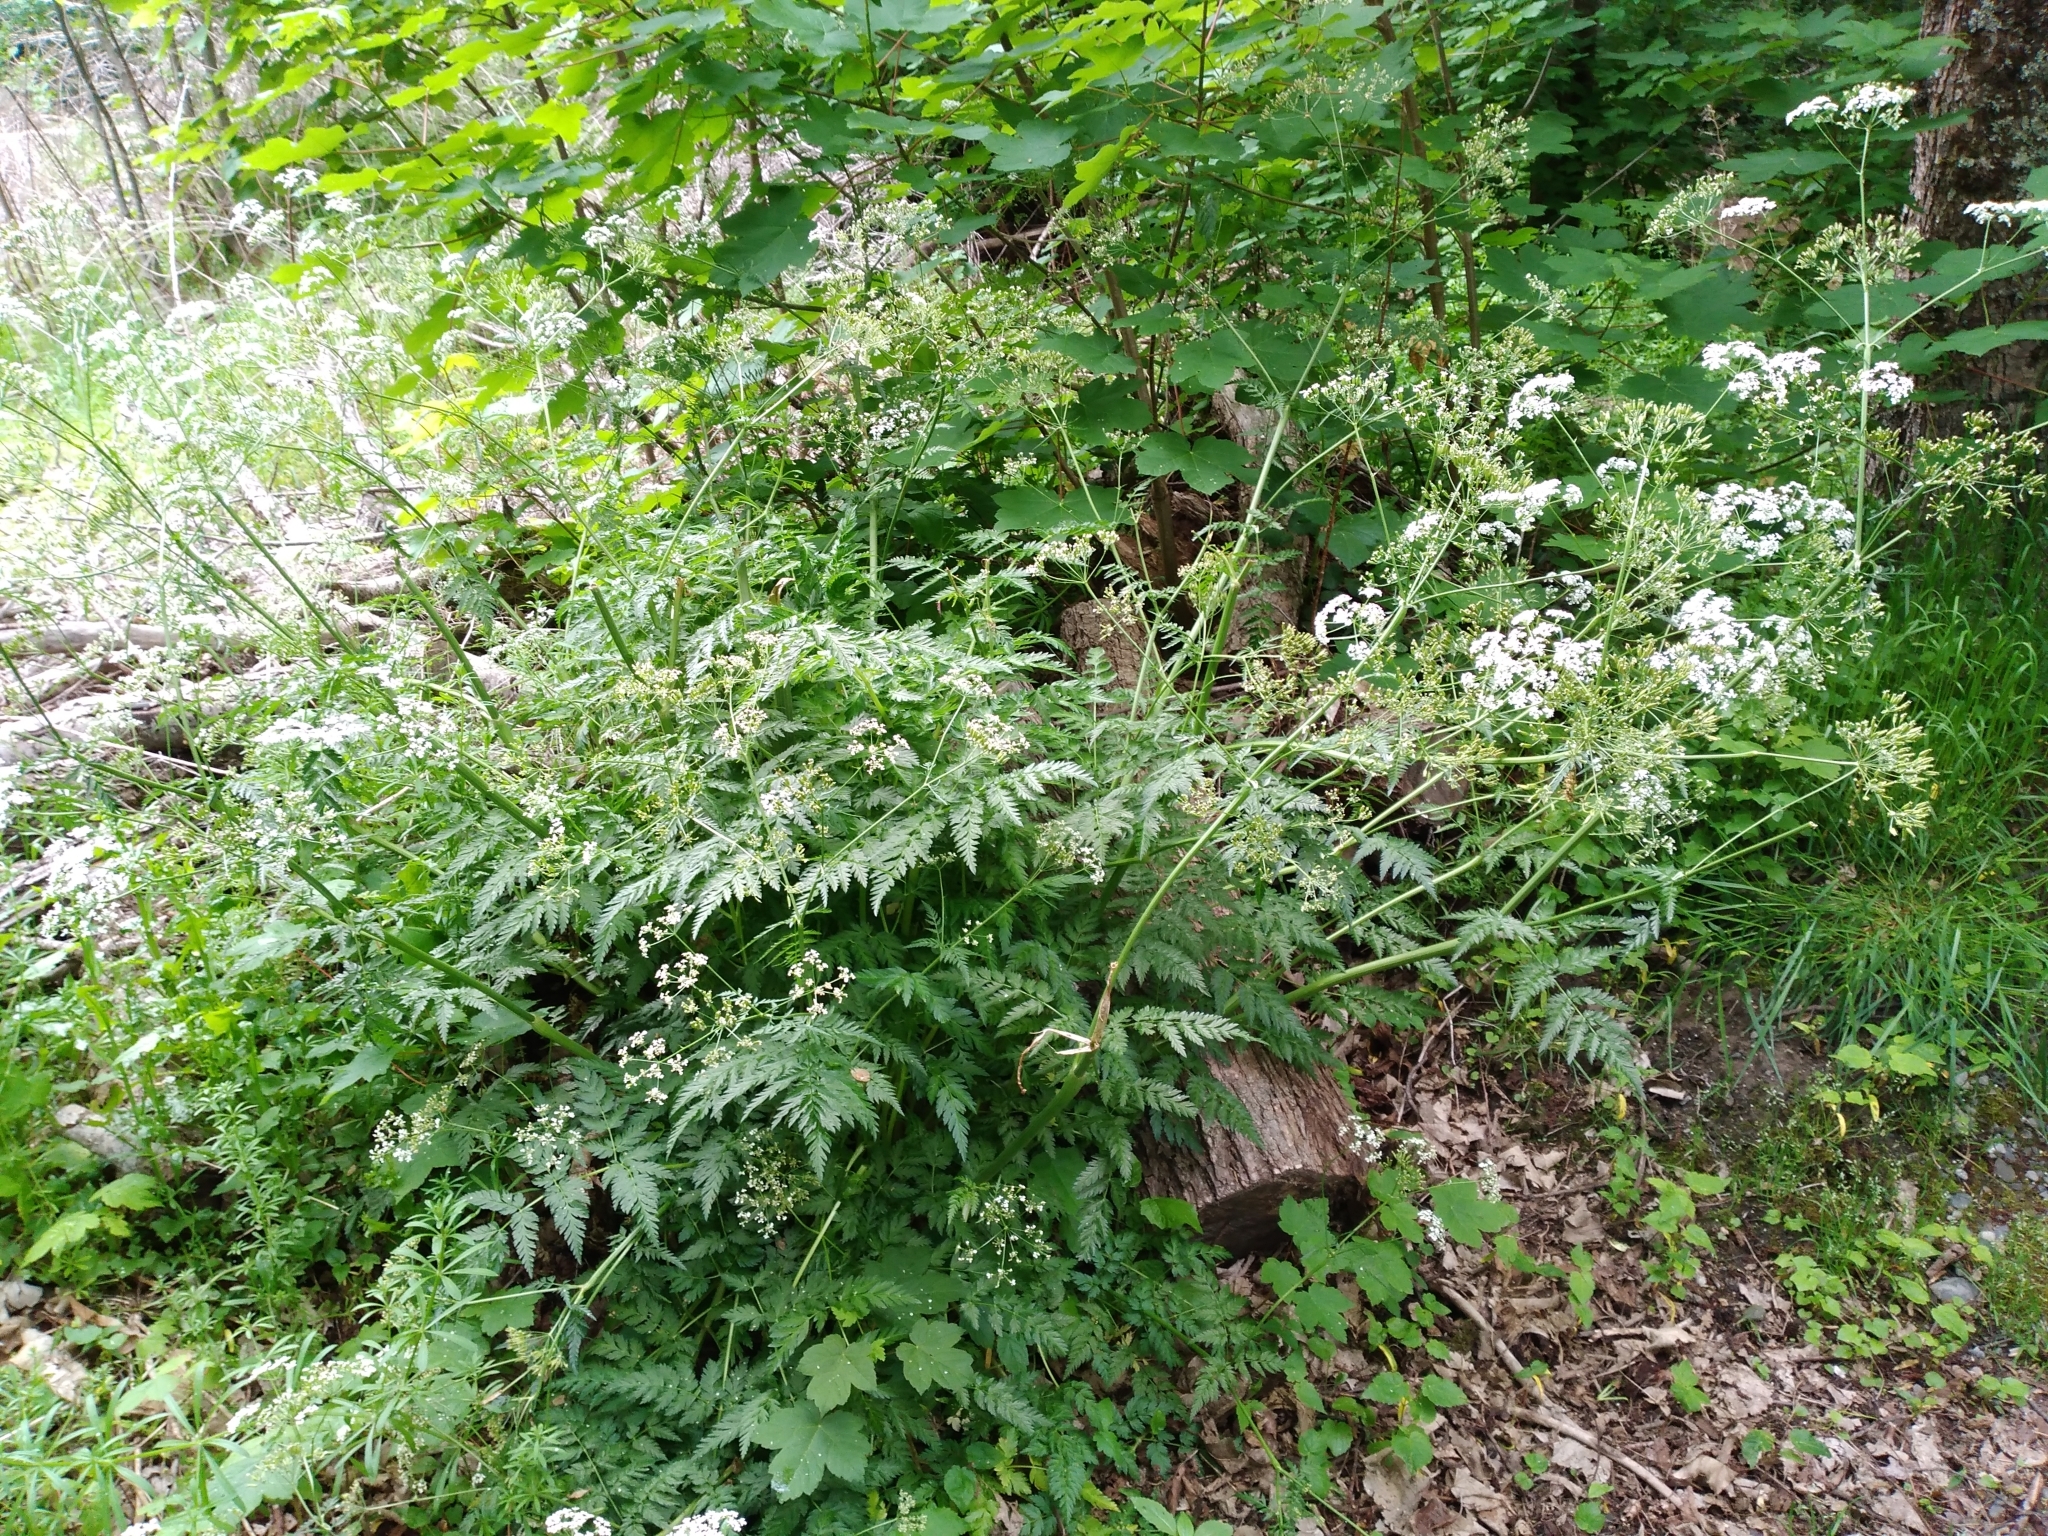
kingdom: Plantae
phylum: Tracheophyta
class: Magnoliopsida
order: Apiales
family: Apiaceae
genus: Anthriscus
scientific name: Anthriscus sylvestris
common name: Cow parsley
